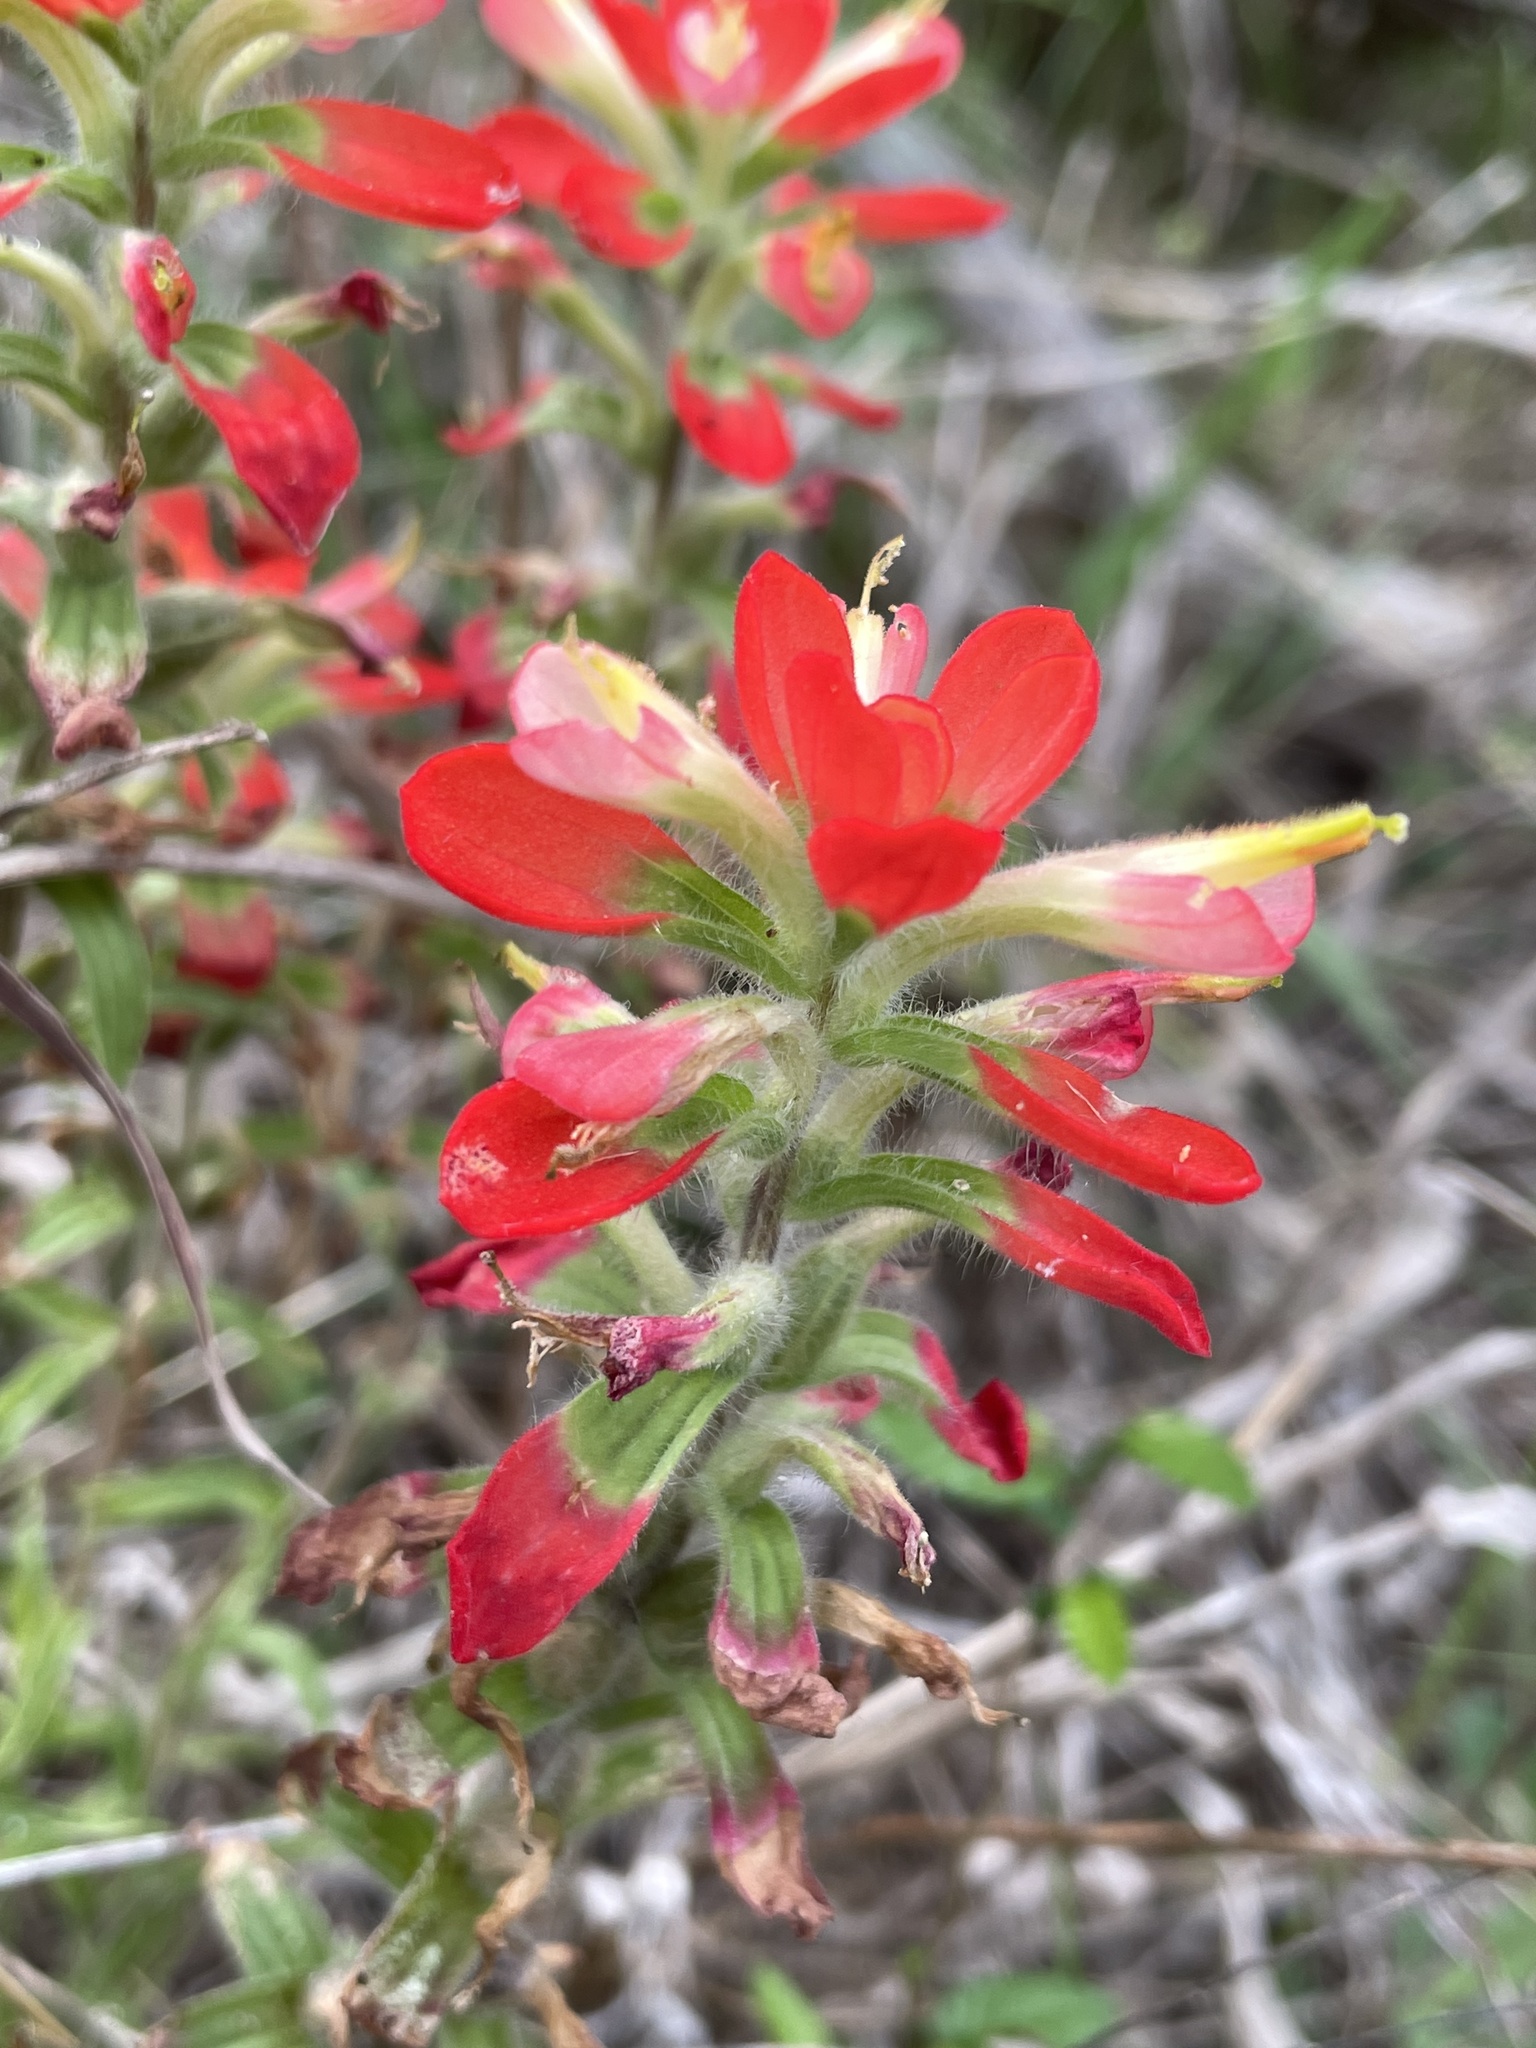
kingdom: Plantae
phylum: Tracheophyta
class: Magnoliopsida
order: Lamiales
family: Orobanchaceae
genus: Castilleja
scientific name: Castilleja indivisa
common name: Texas paintbrush
